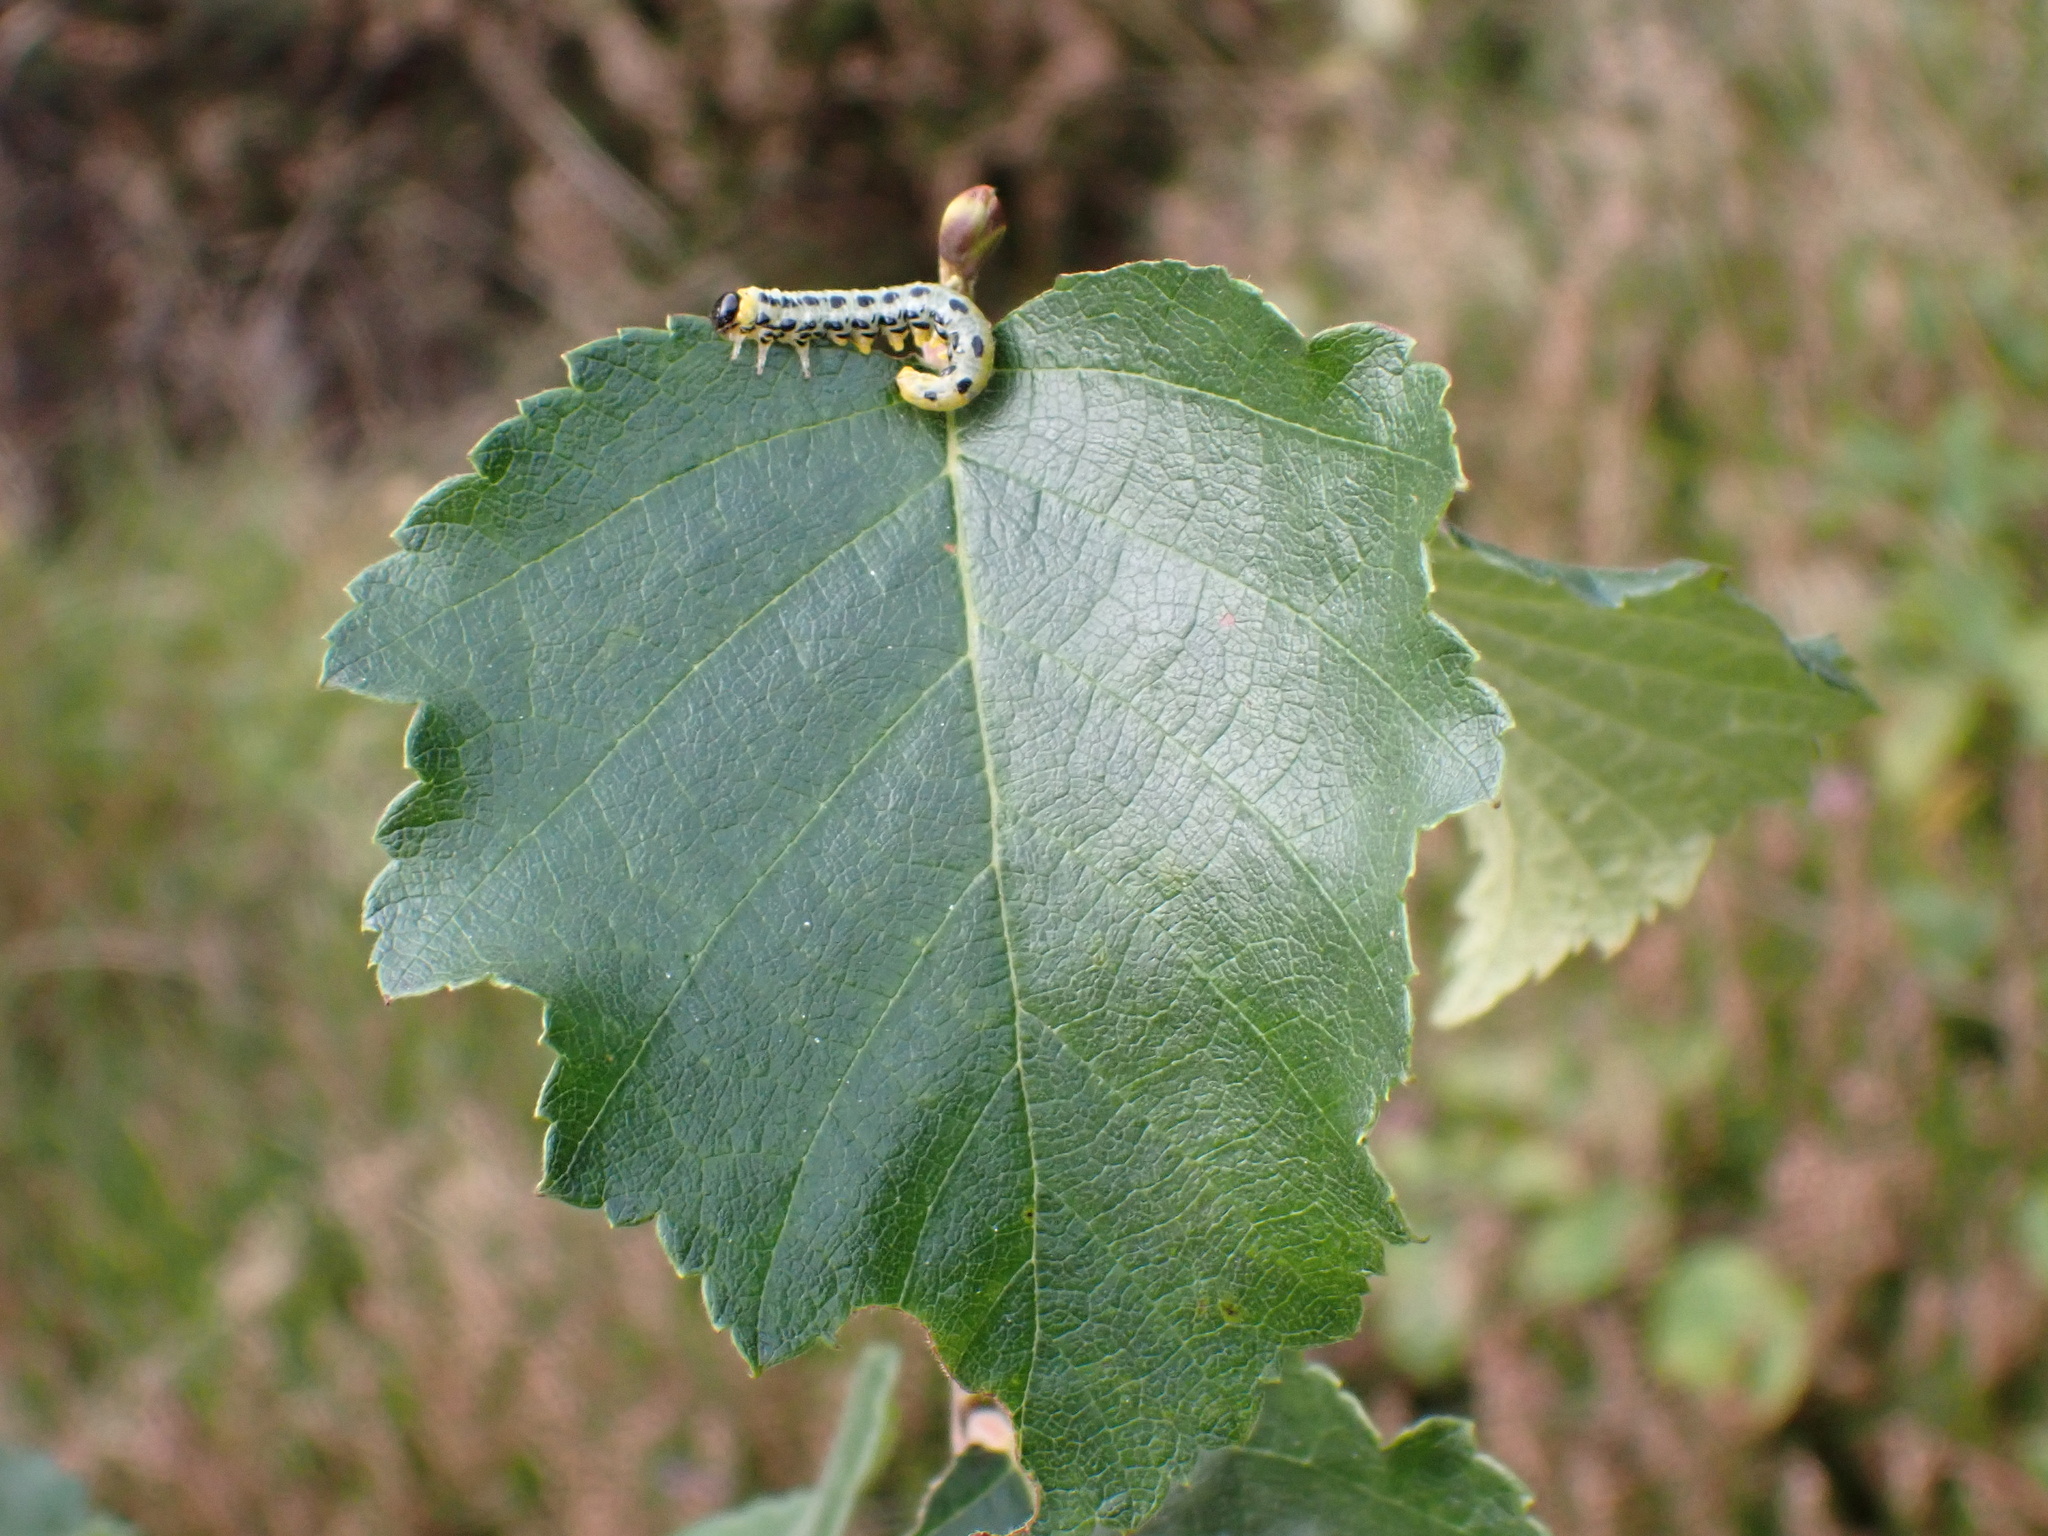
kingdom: Animalia
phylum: Arthropoda
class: Insecta
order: Hymenoptera
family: Tenthredinidae
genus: Craesus
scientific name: Craesus septentrionalis
